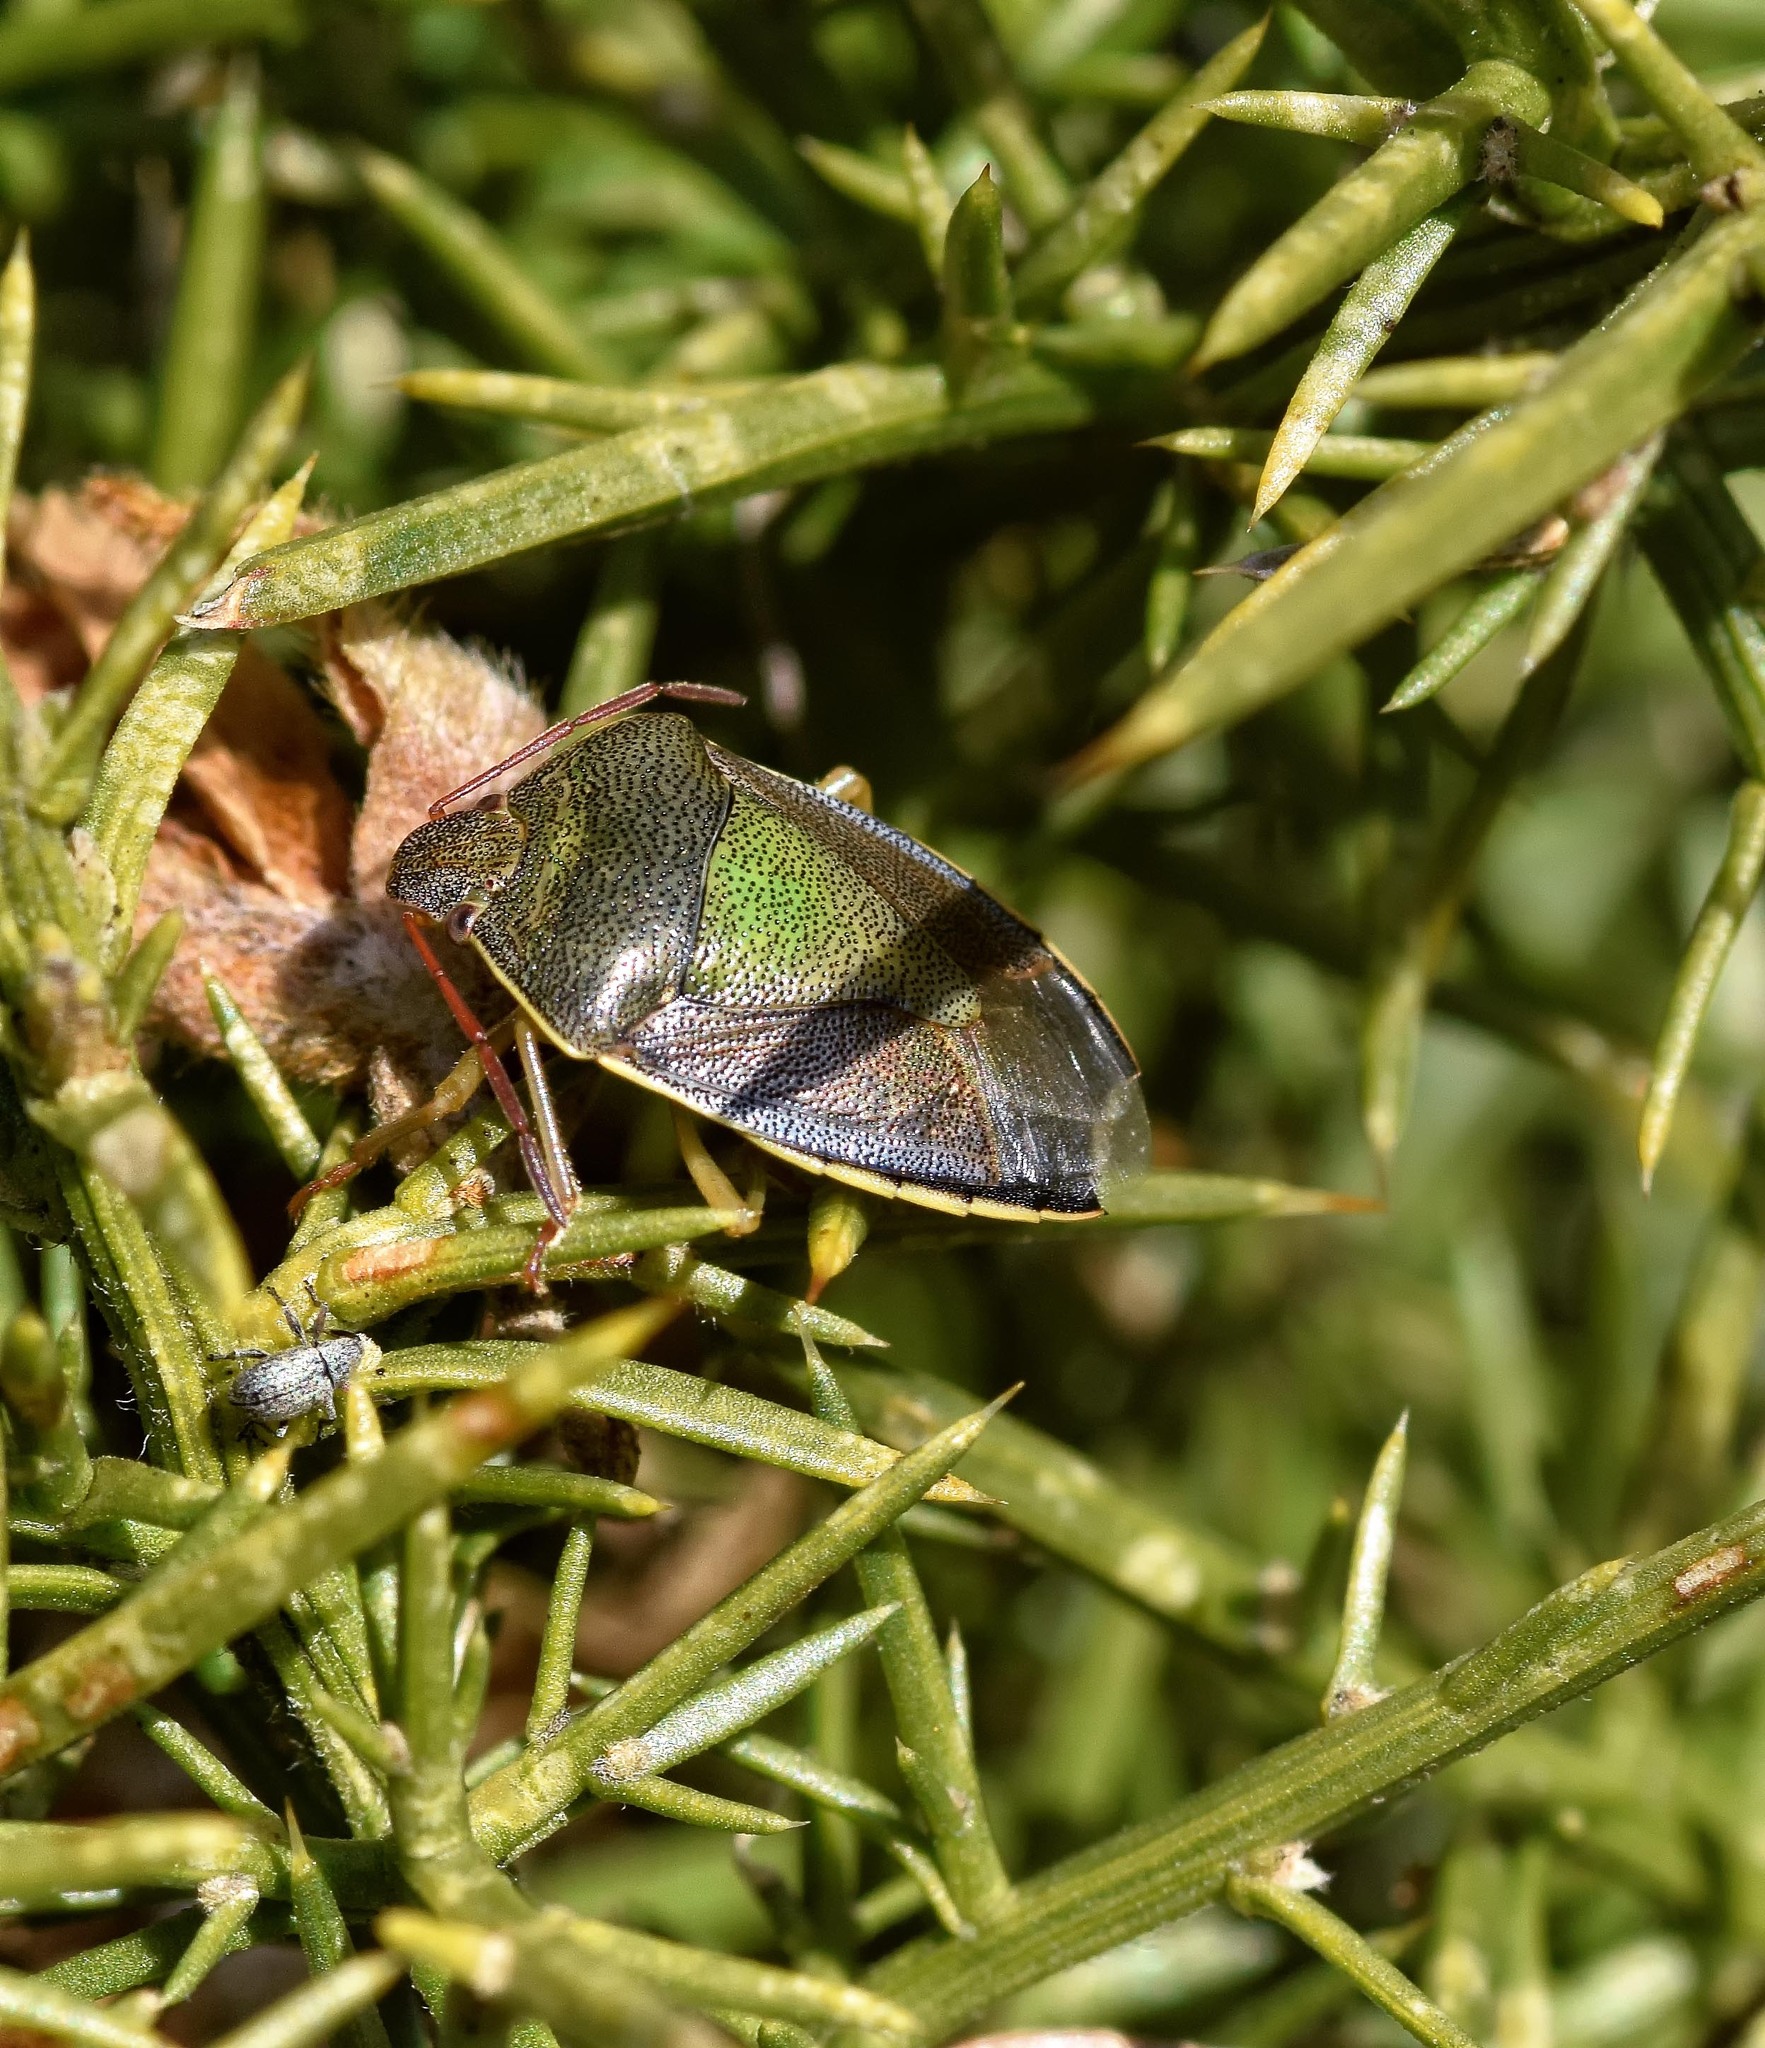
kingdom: Animalia
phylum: Arthropoda
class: Insecta
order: Hemiptera
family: Pentatomidae
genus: Piezodorus
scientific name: Piezodorus lituratus
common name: Stink bug
